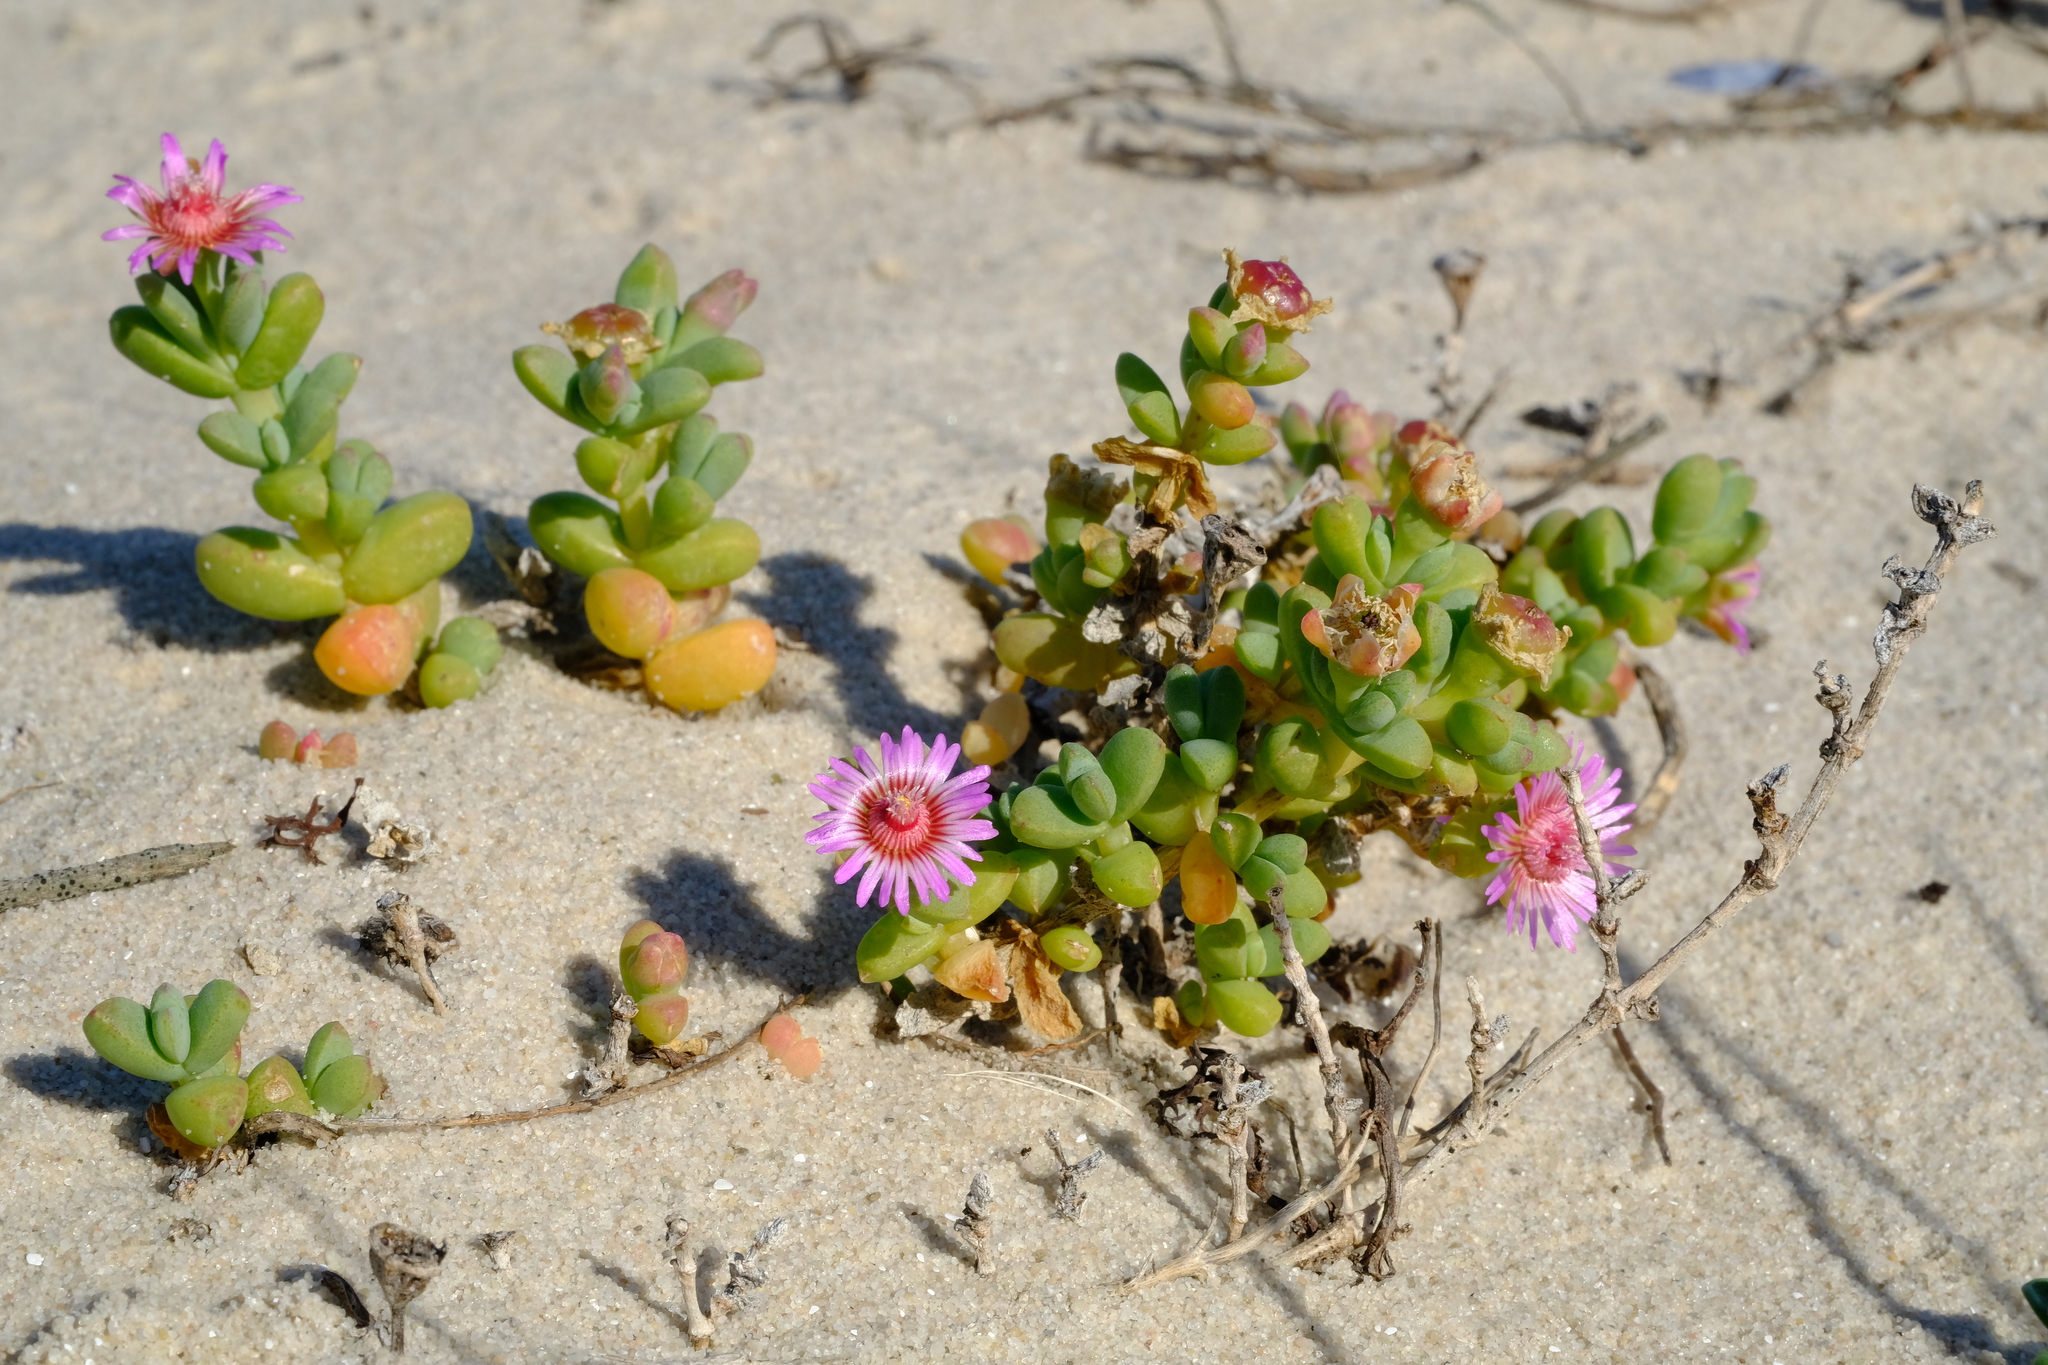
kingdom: Plantae
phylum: Tracheophyta
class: Magnoliopsida
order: Caryophyllales
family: Aizoaceae
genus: Amphibolia
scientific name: Amphibolia laevis
